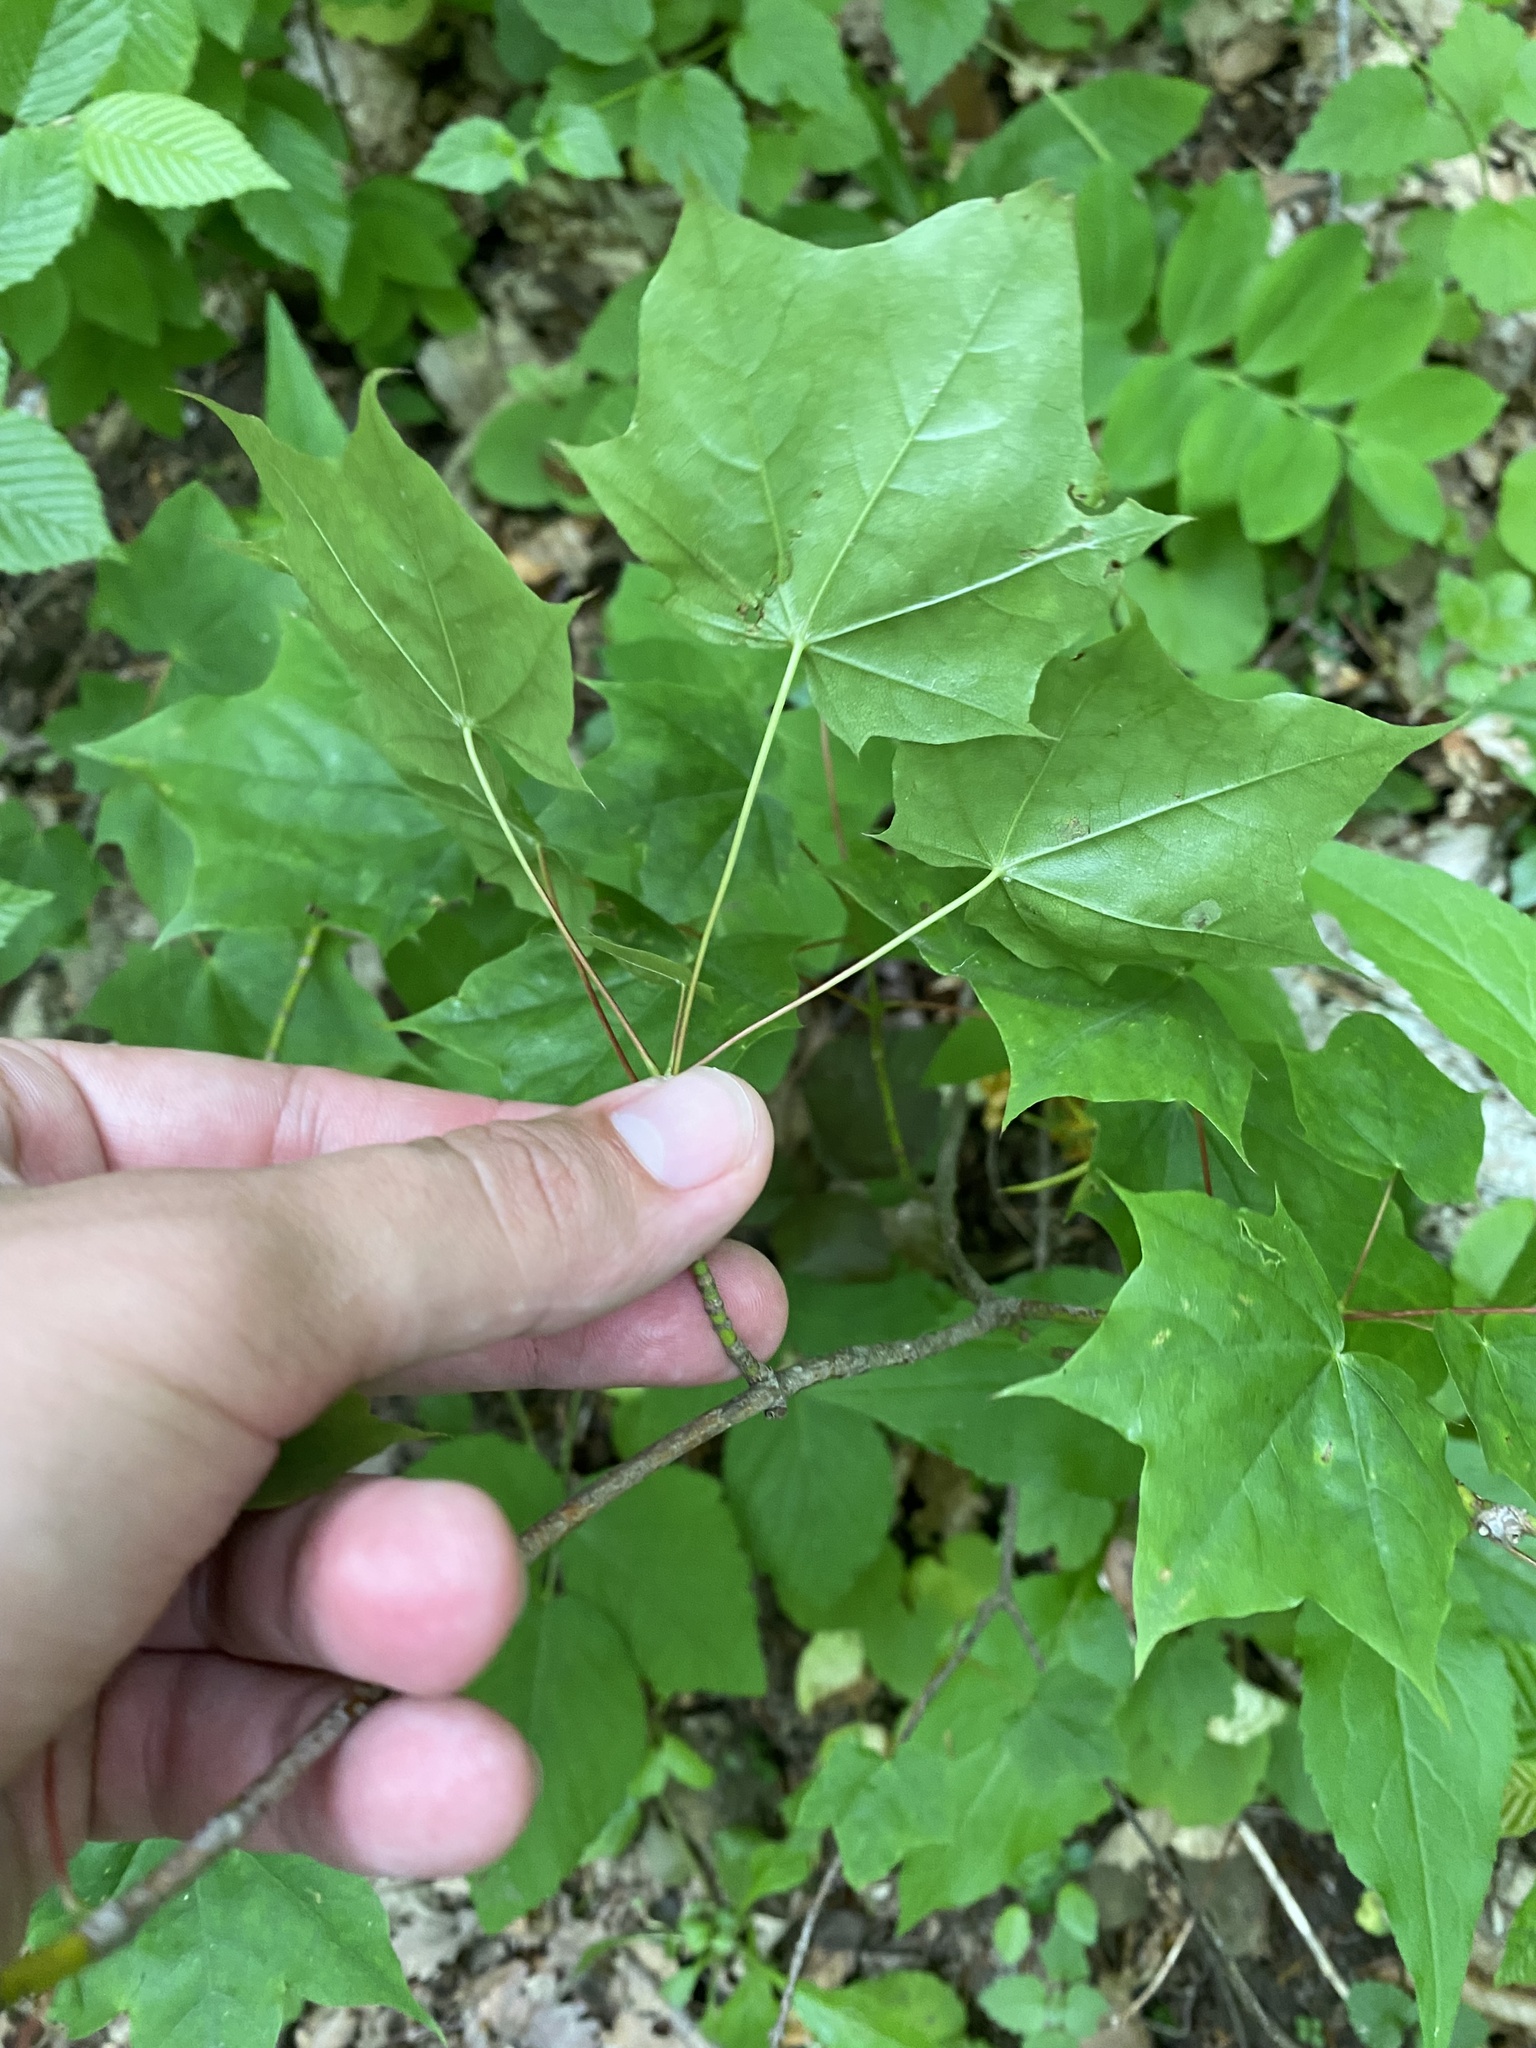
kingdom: Plantae
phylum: Tracheophyta
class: Magnoliopsida
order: Sapindales
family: Sapindaceae
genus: Acer
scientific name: Acer platanoides
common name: Norway maple
